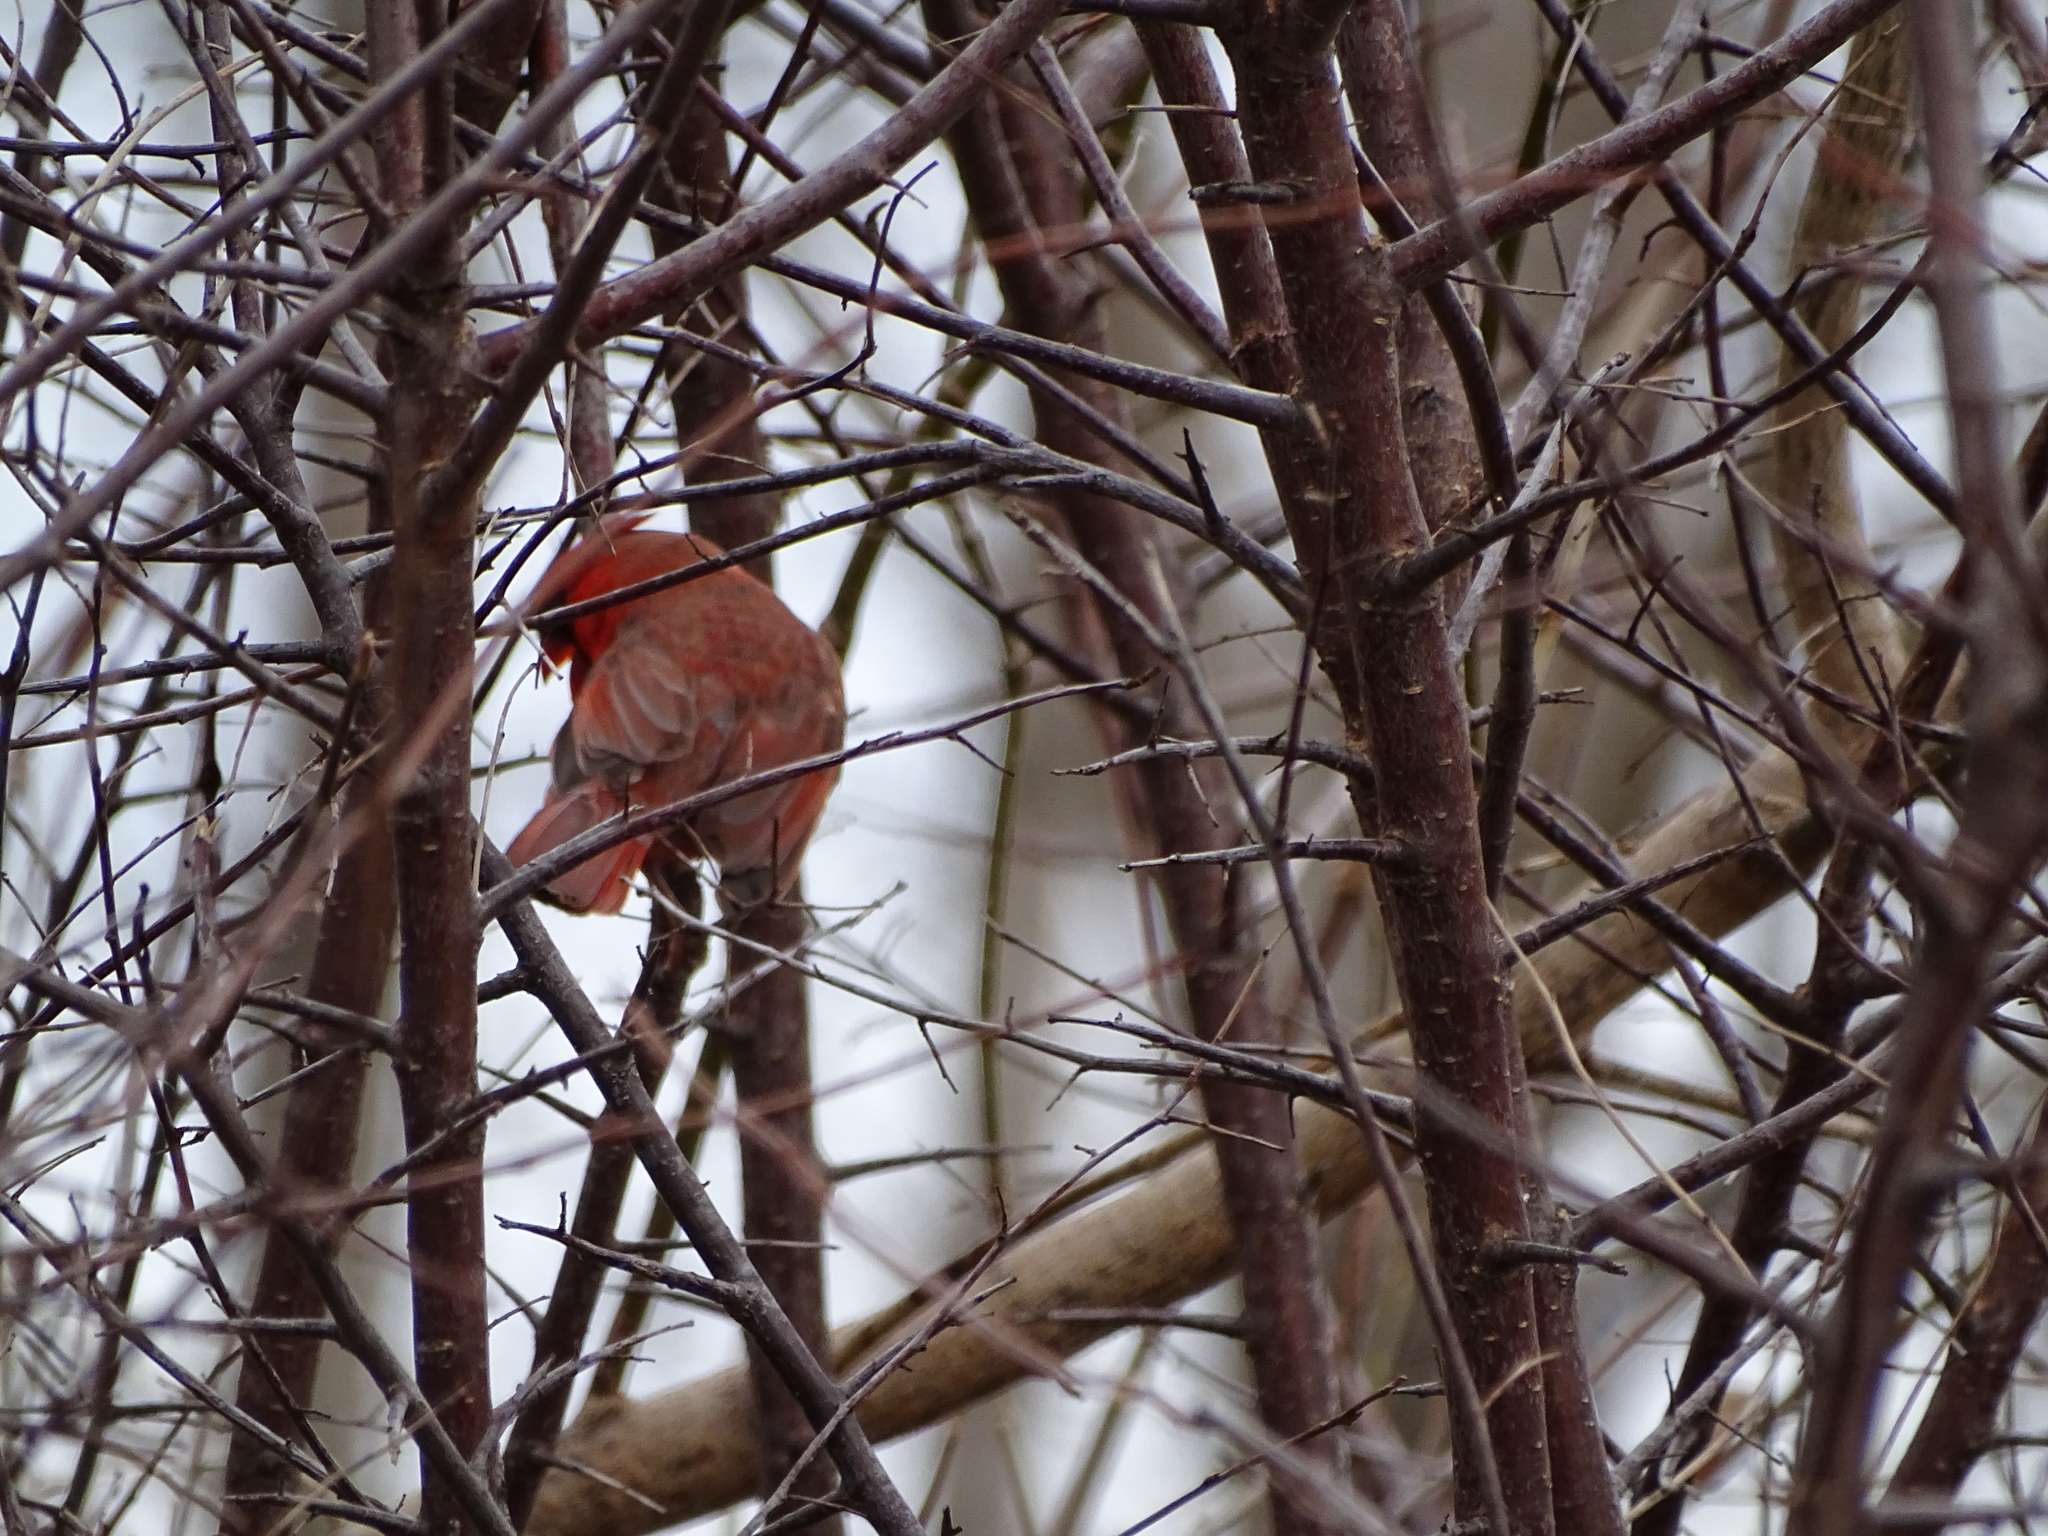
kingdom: Animalia
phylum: Chordata
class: Aves
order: Passeriformes
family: Cardinalidae
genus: Cardinalis
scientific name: Cardinalis cardinalis
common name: Northern cardinal
